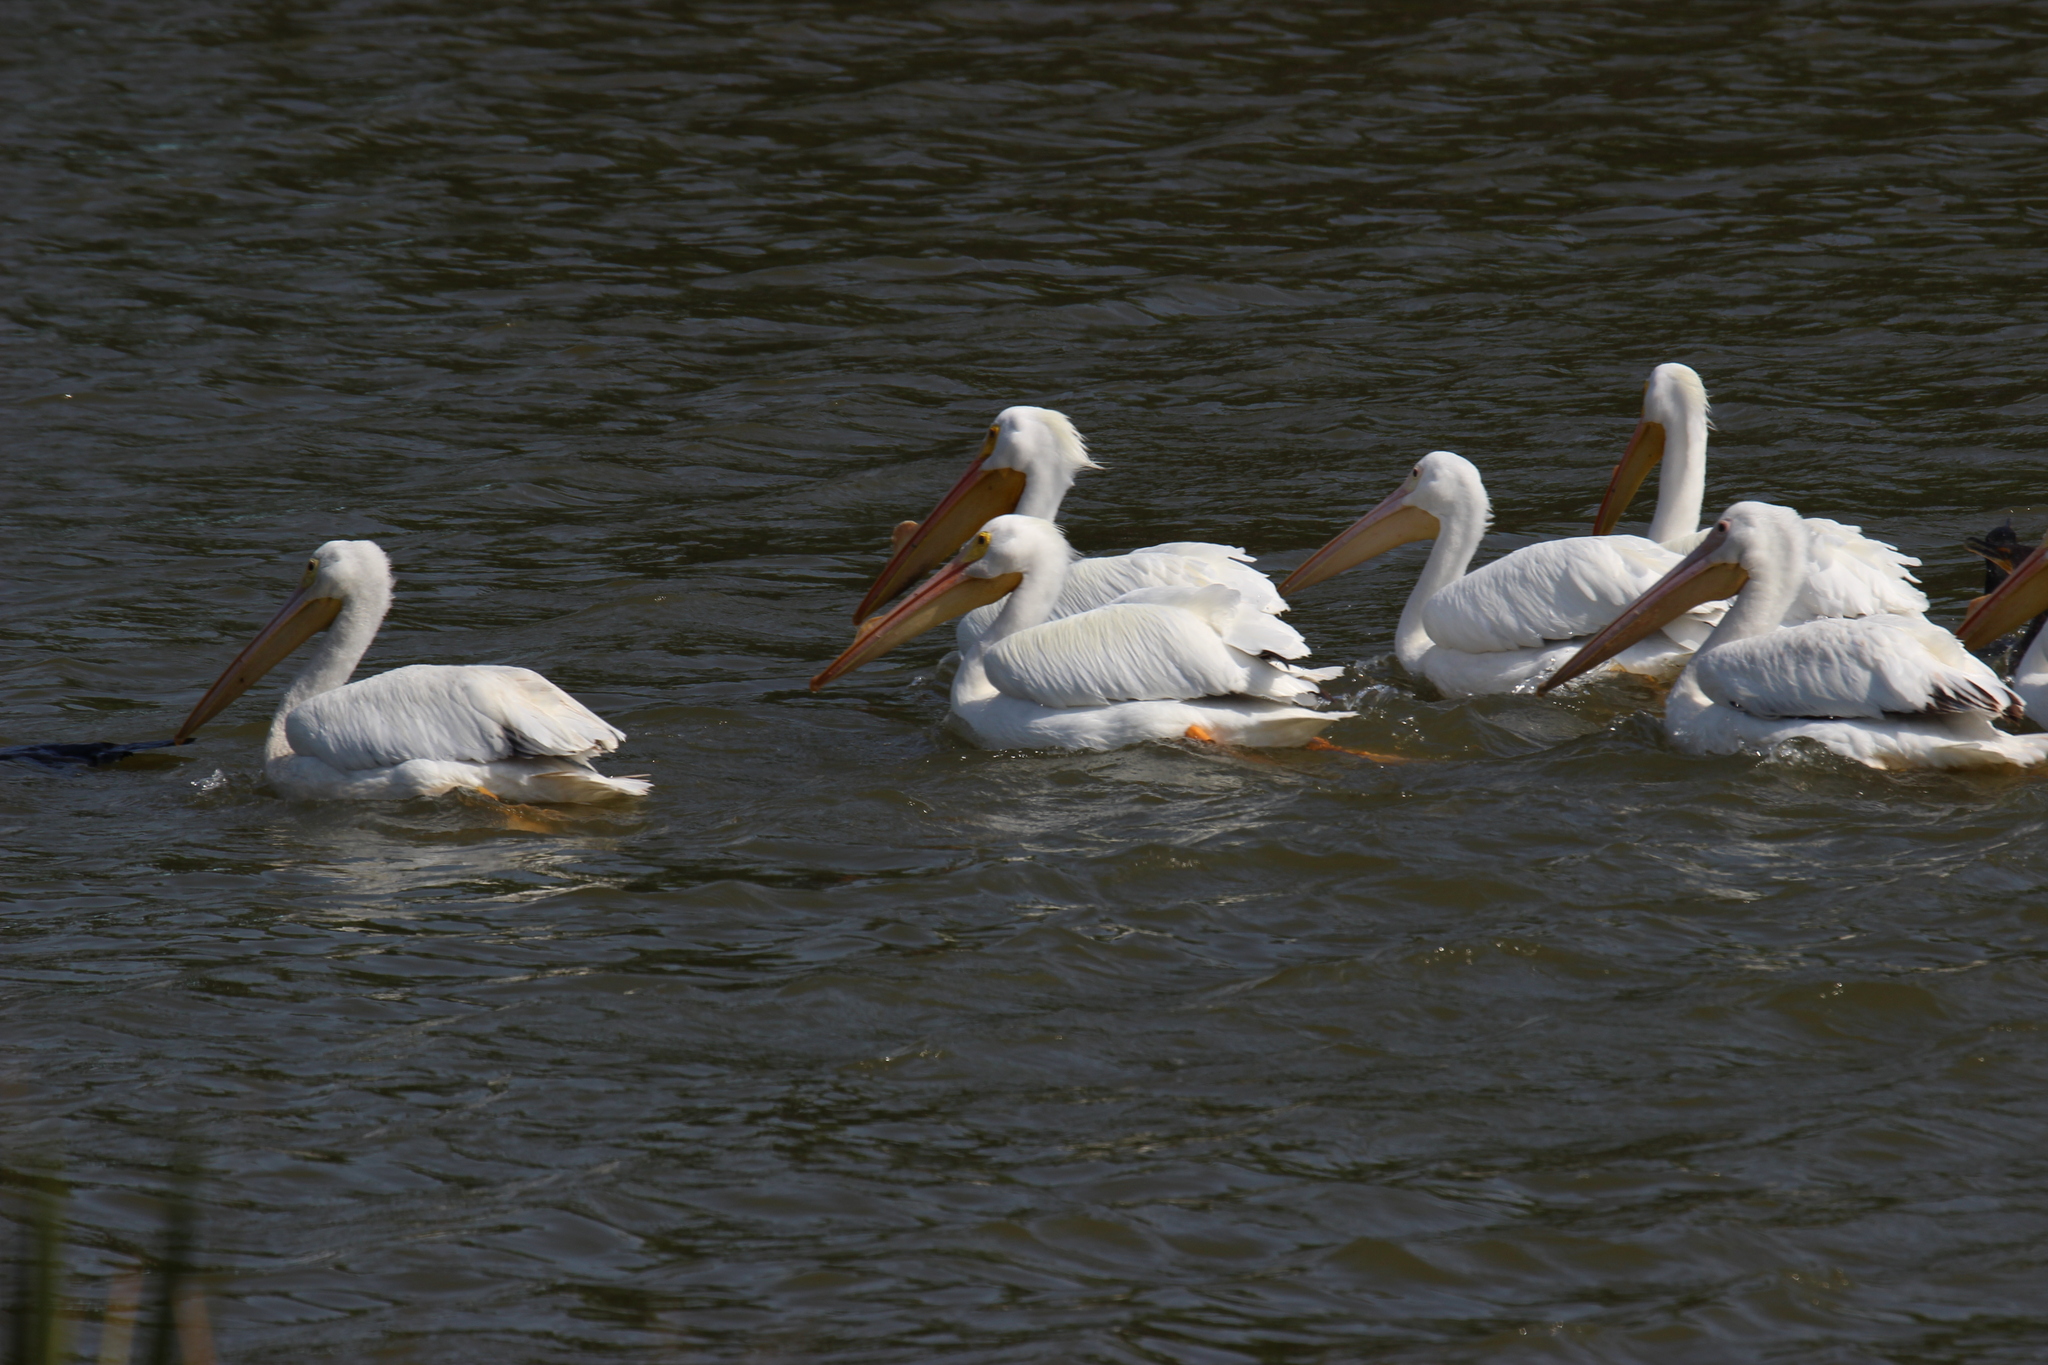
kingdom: Animalia
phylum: Chordata
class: Aves
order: Pelecaniformes
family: Pelecanidae
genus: Pelecanus
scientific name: Pelecanus erythrorhynchos
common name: American white pelican
